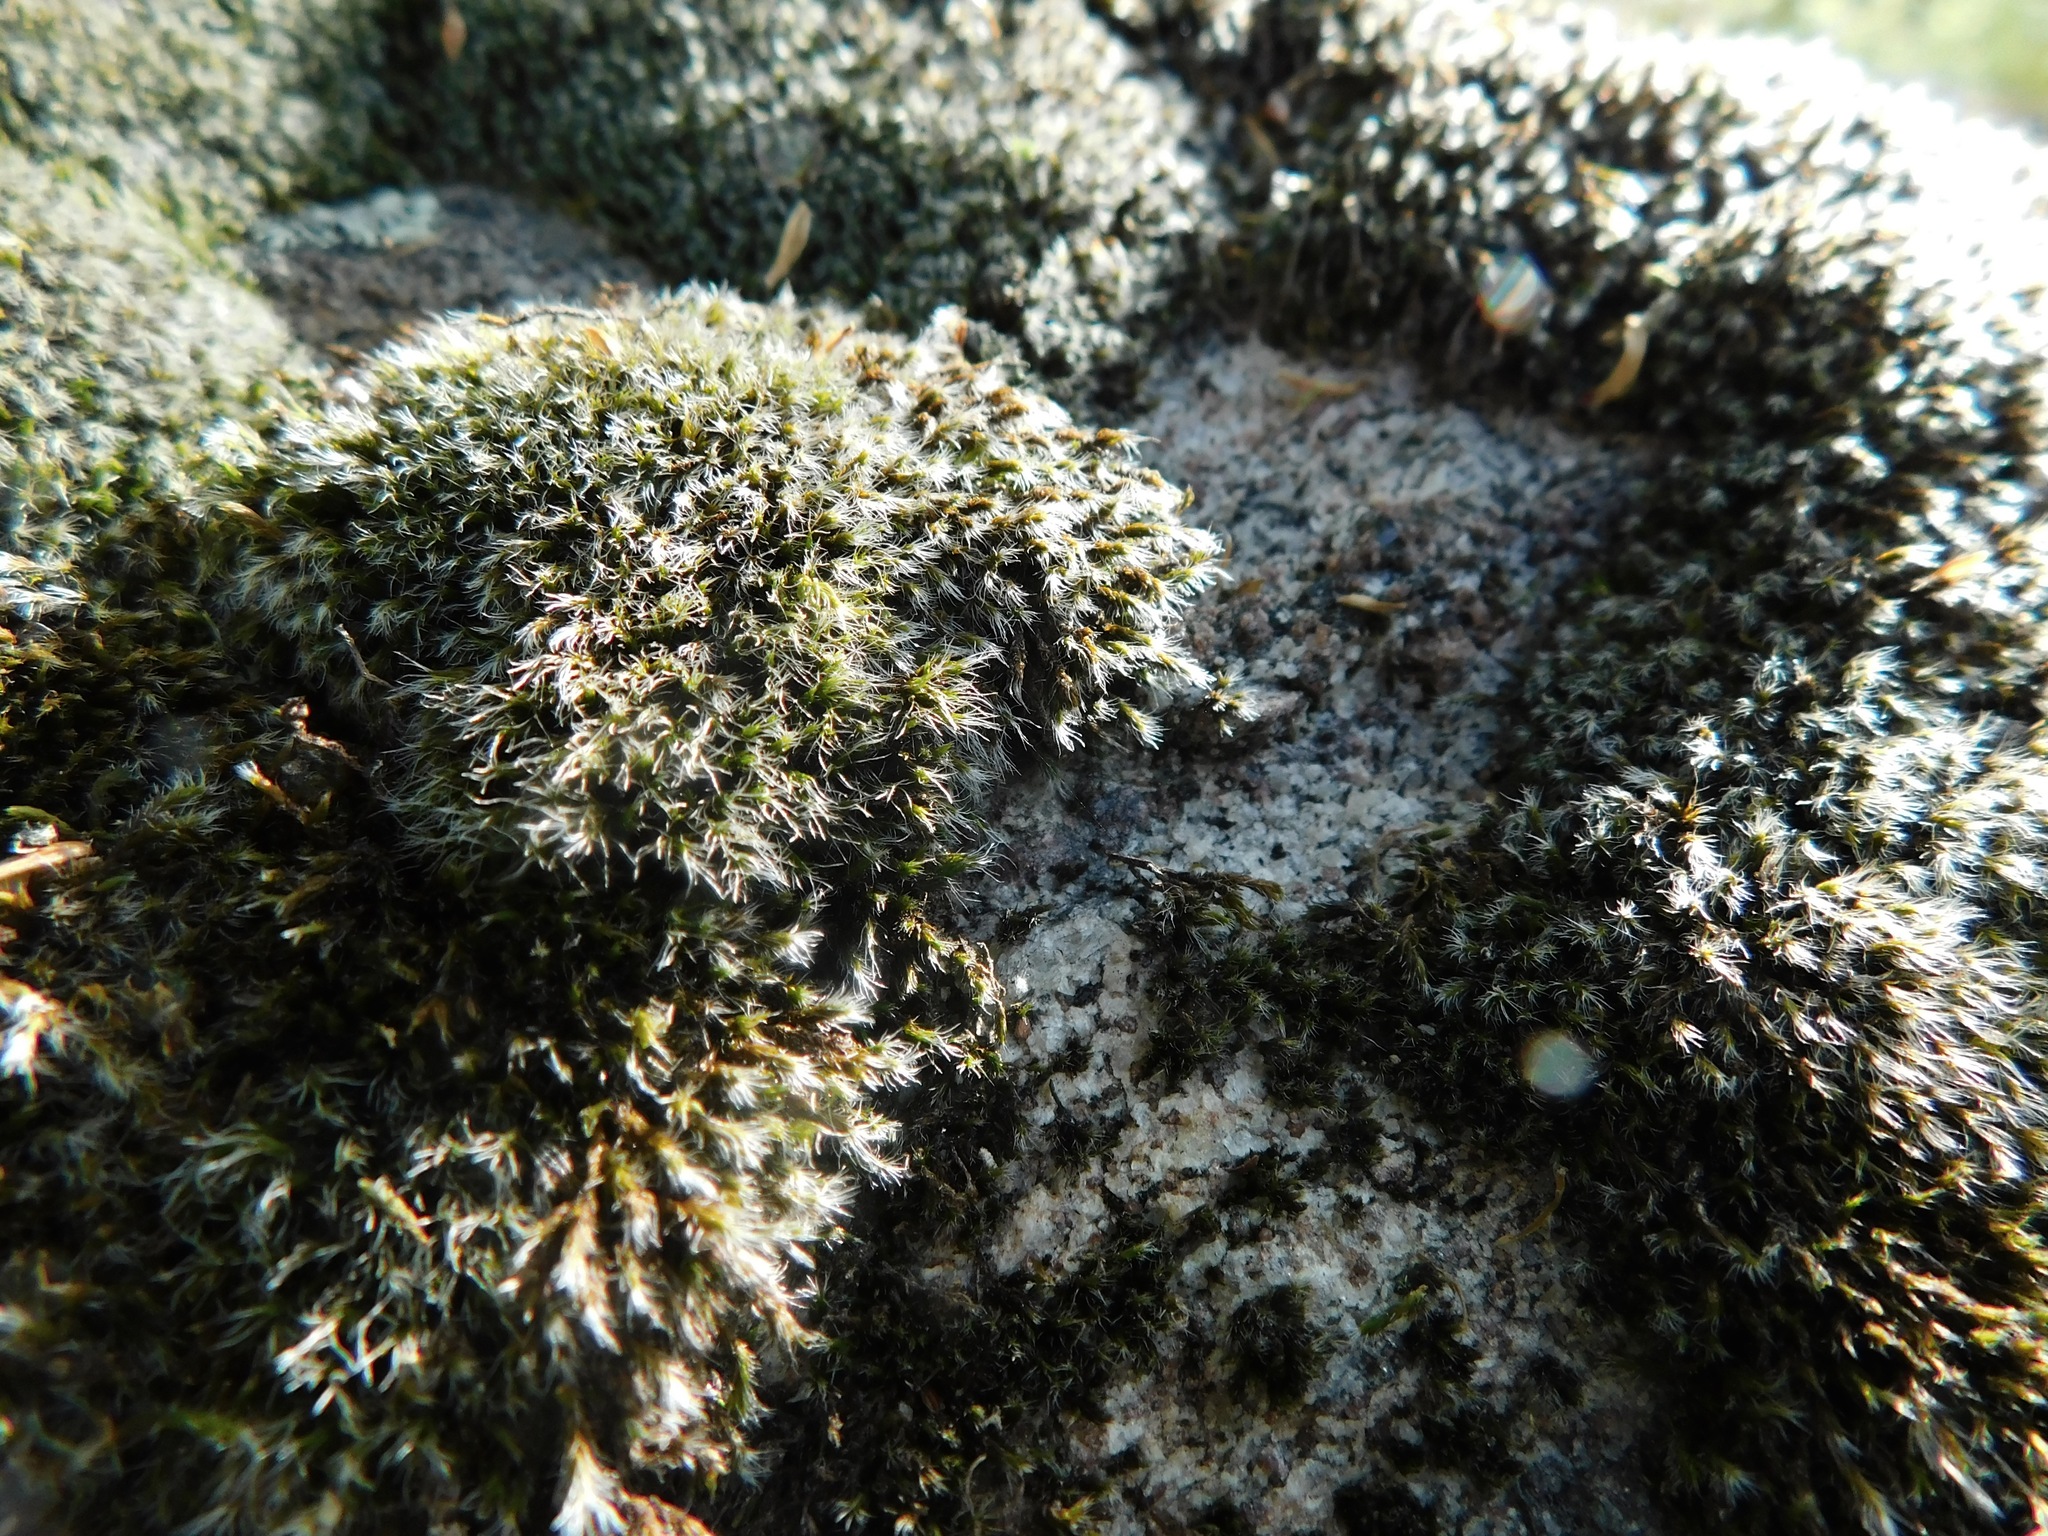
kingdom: Plantae
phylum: Bryophyta
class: Bryopsida
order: Grimmiales
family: Grimmiaceae
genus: Grimmia
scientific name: Grimmia pulvinata
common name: Grey-cushioned grimmia
